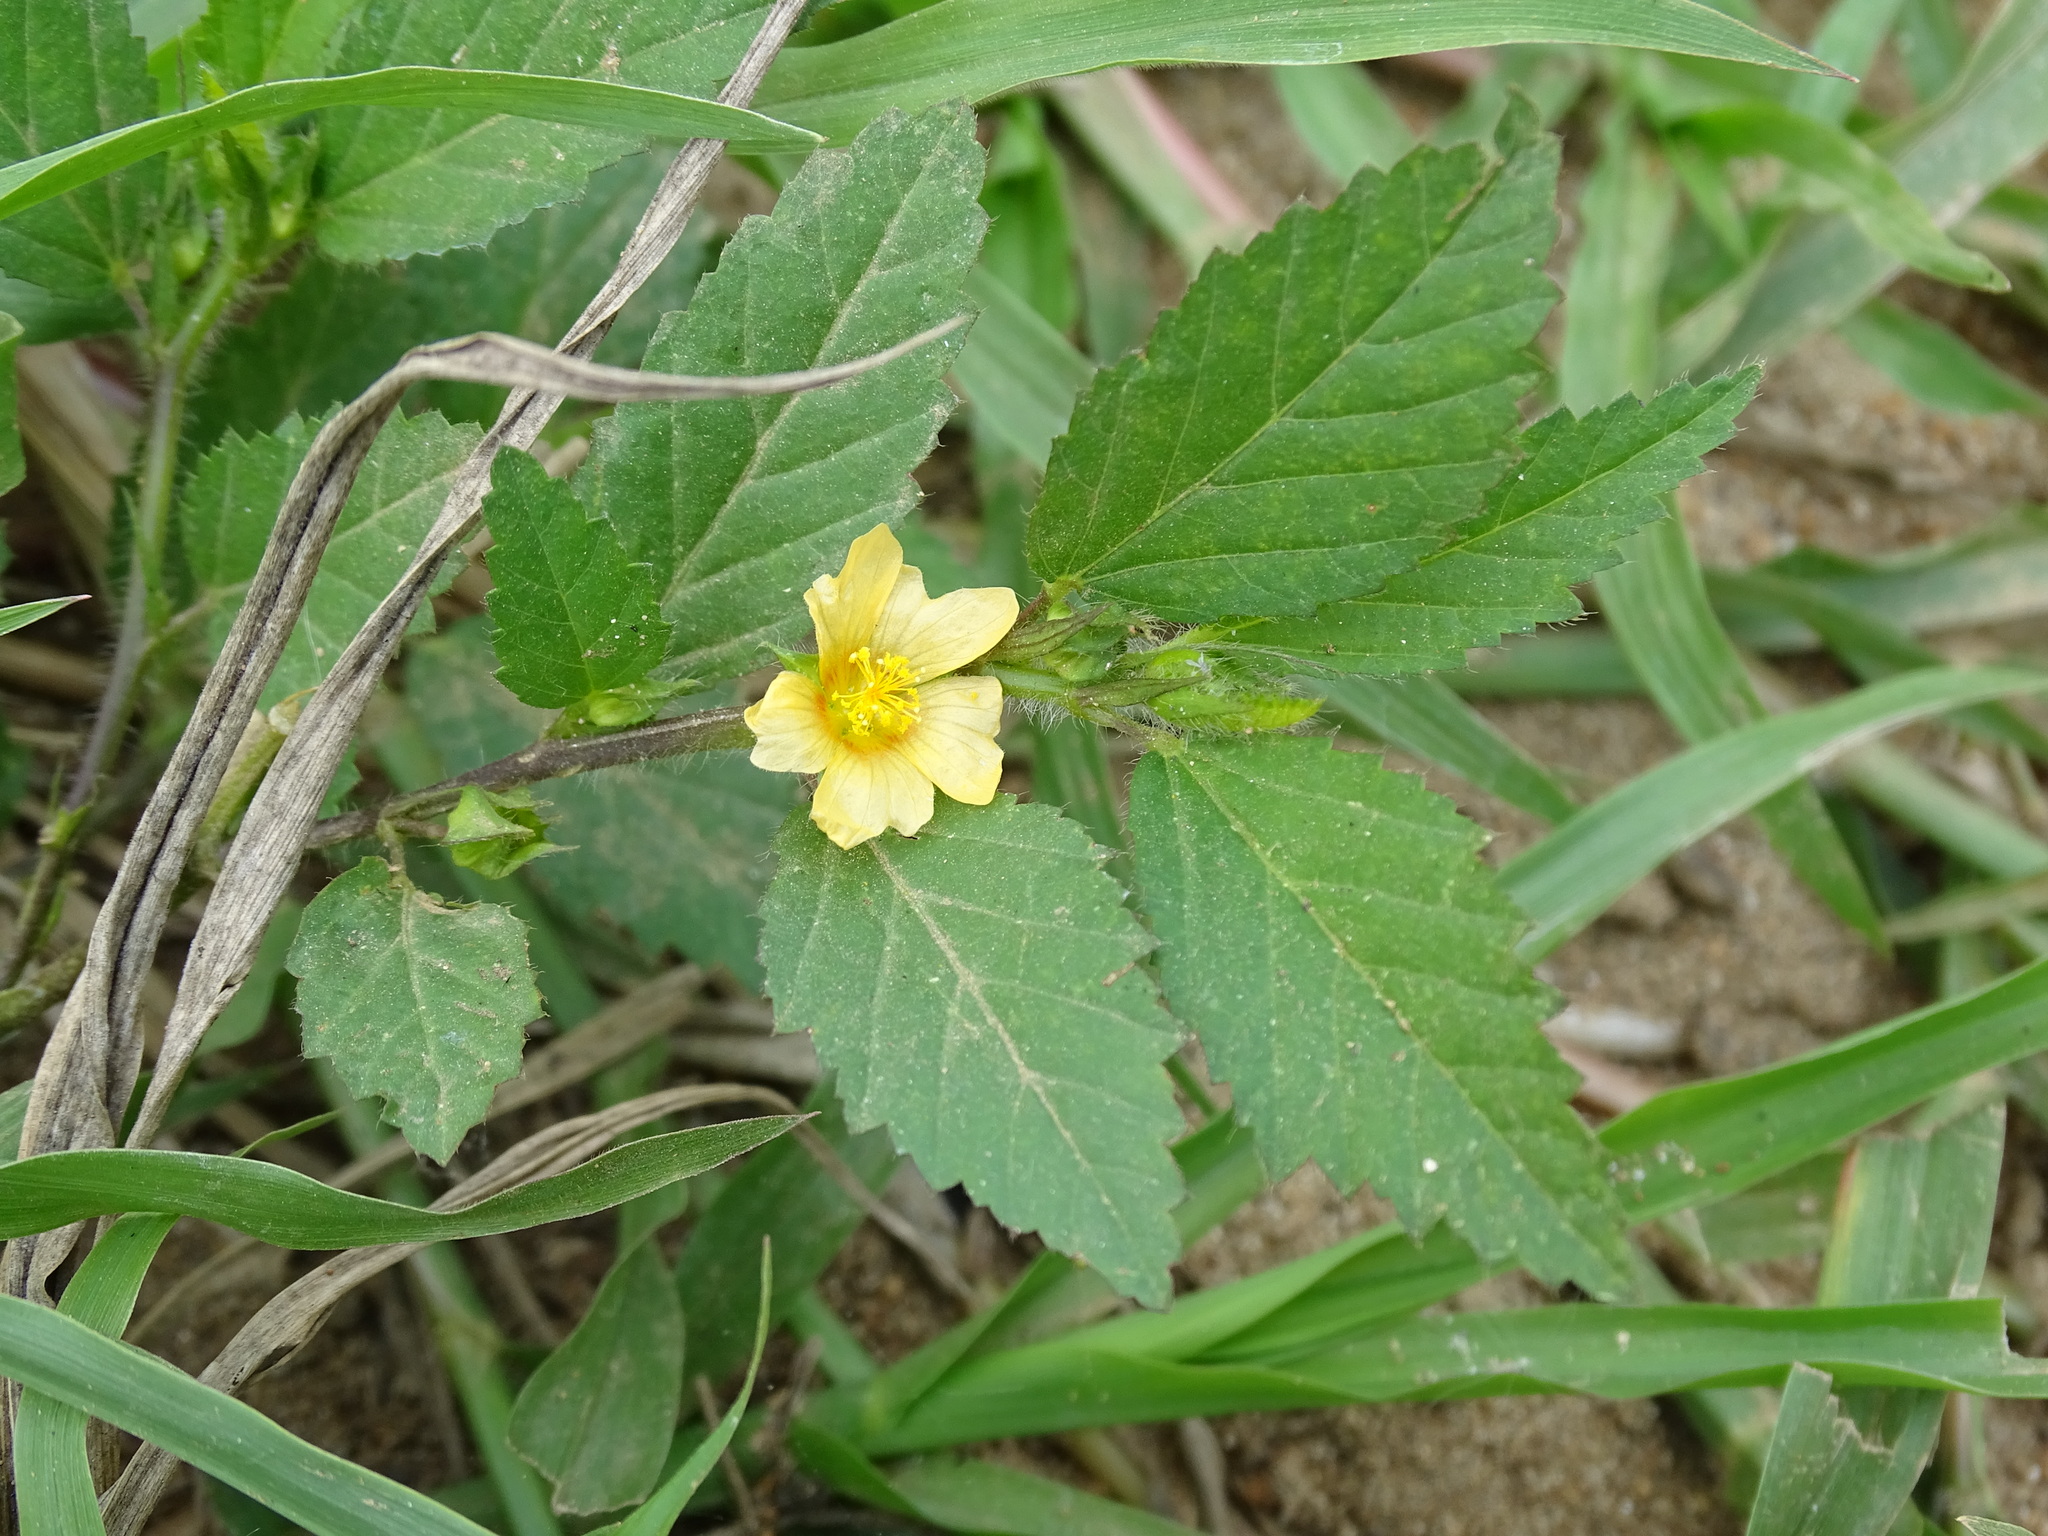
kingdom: Plantae
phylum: Tracheophyta
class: Magnoliopsida
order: Malvales
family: Malvaceae
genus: Sida
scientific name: Sida acuta
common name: Common wireweed
